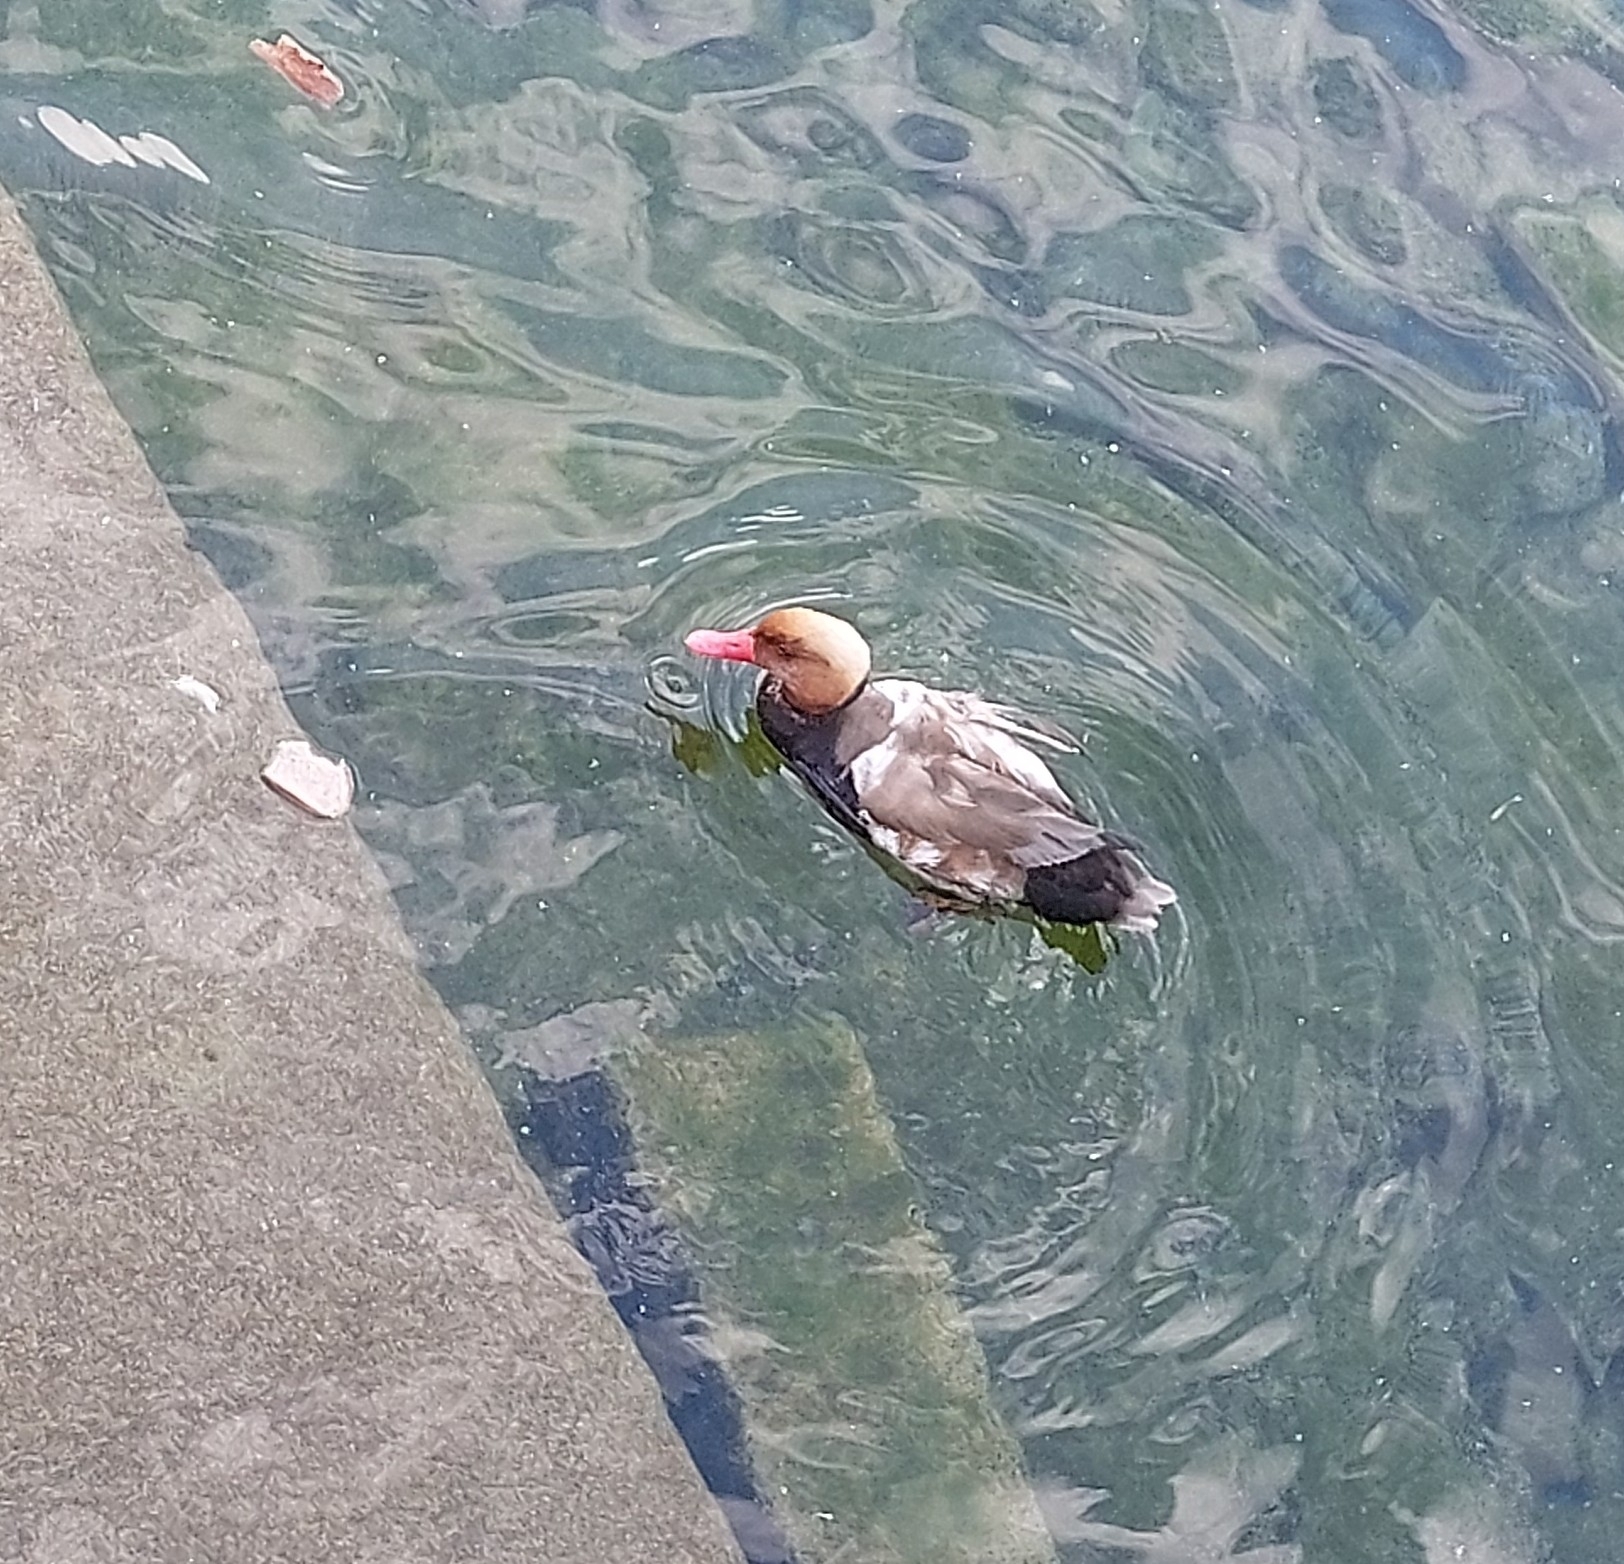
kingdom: Animalia
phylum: Chordata
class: Aves
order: Anseriformes
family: Anatidae
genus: Netta
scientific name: Netta rufina
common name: Red-crested pochard
